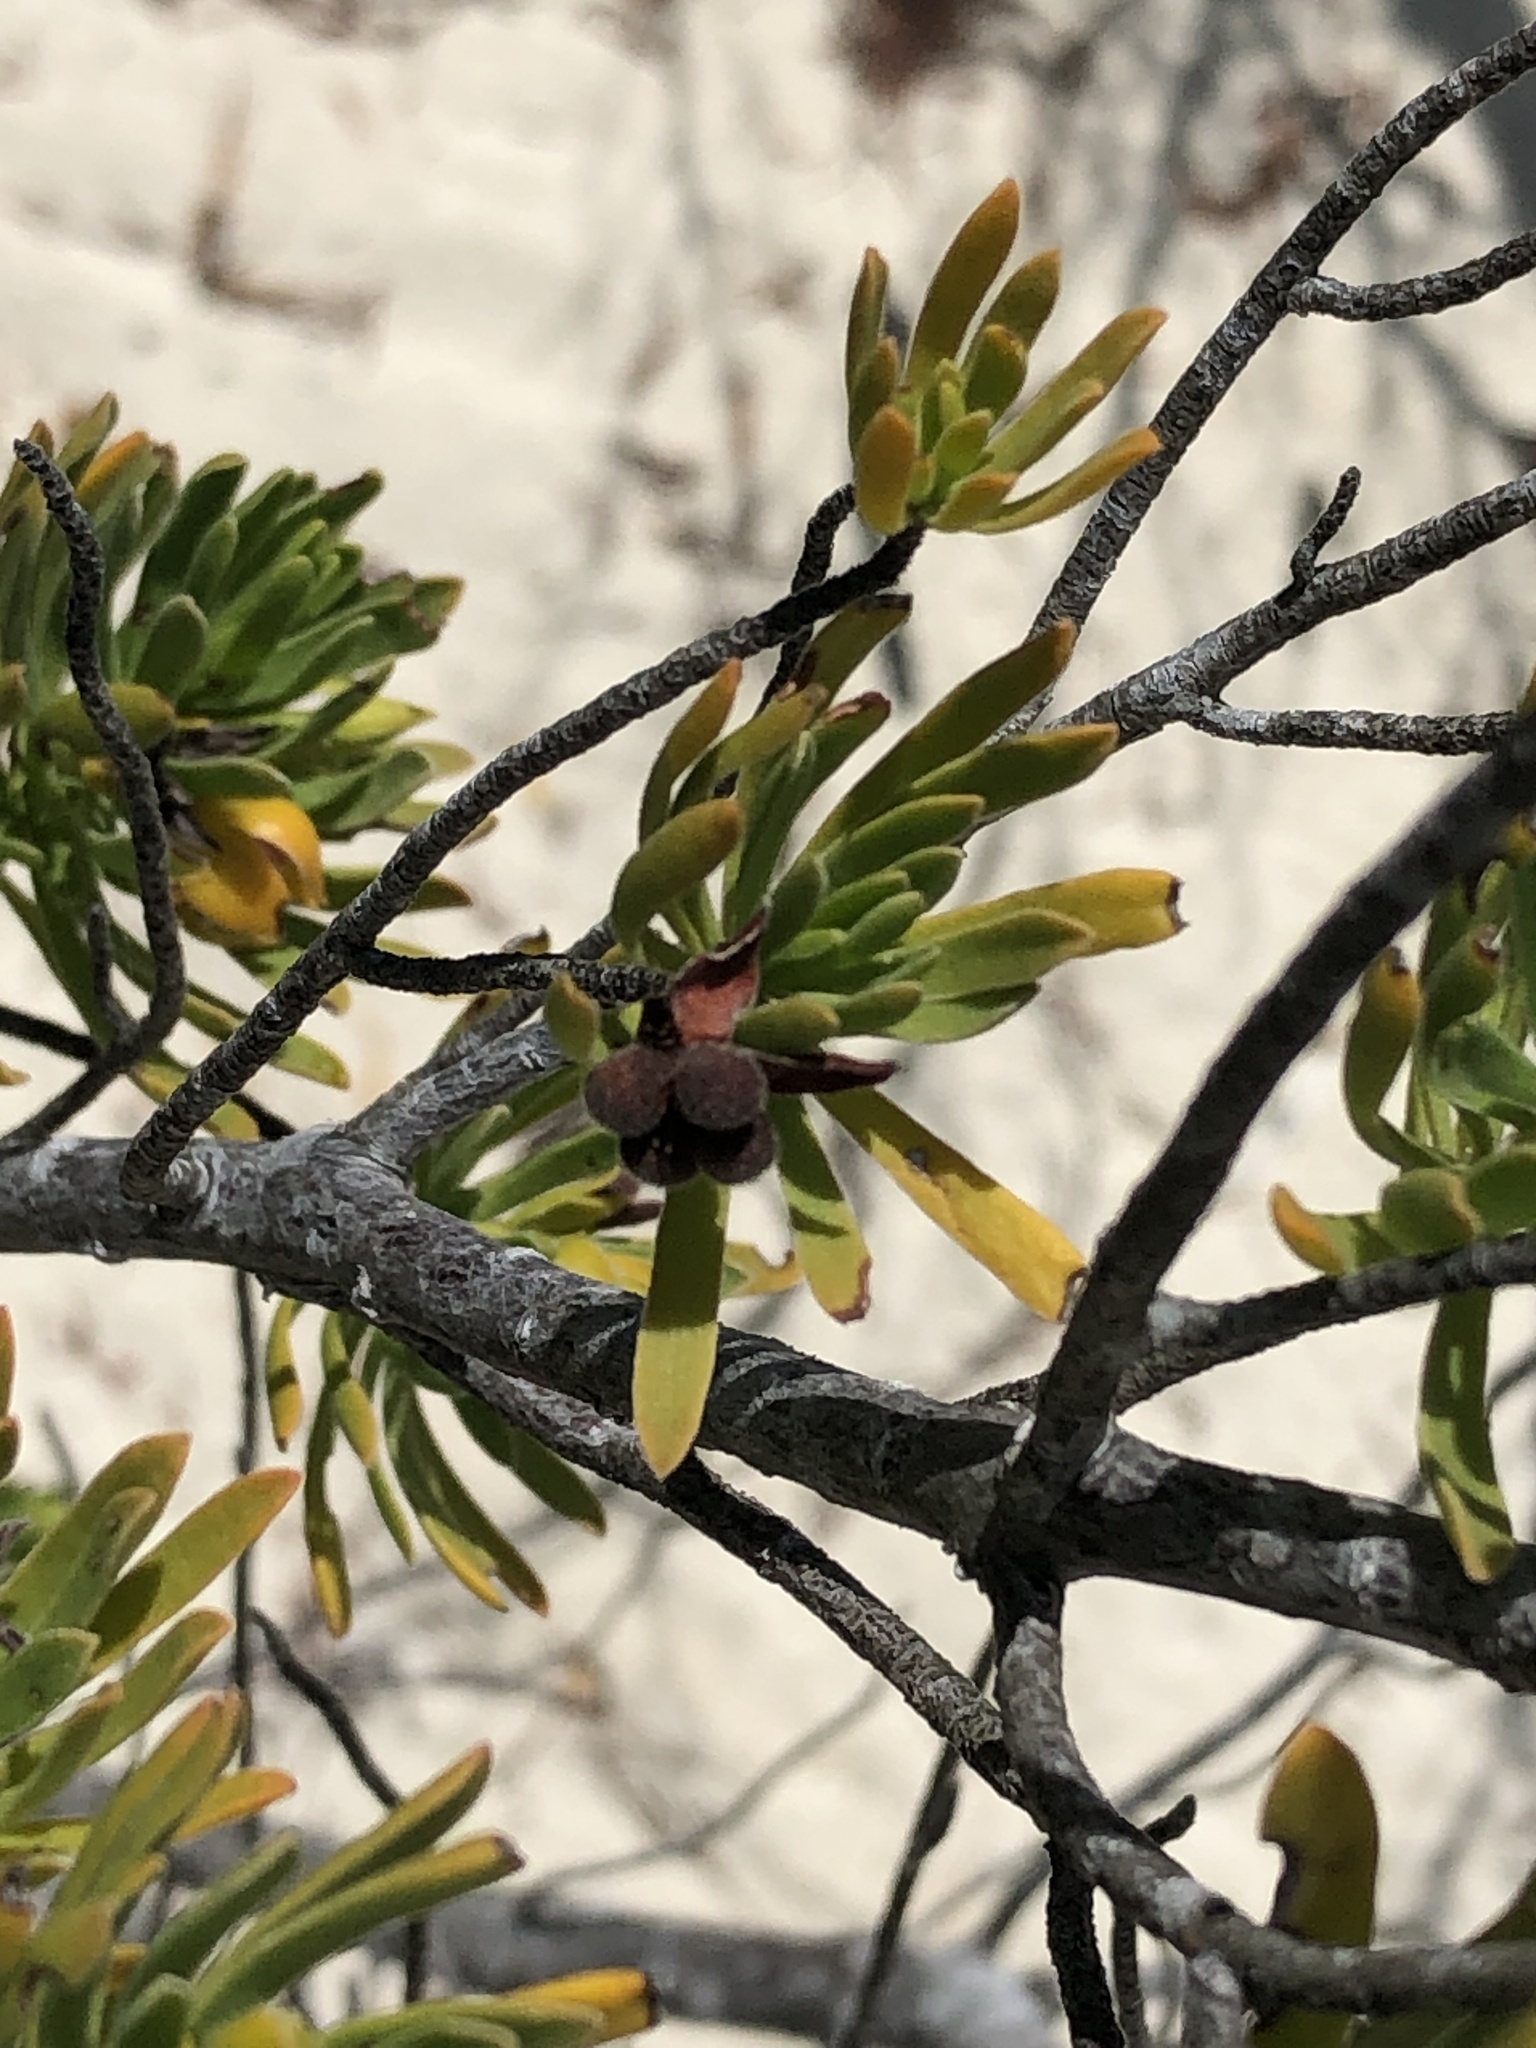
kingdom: Plantae
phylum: Tracheophyta
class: Magnoliopsida
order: Fabales
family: Surianaceae
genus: Suriana
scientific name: Suriana maritima
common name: Bay-cedar
